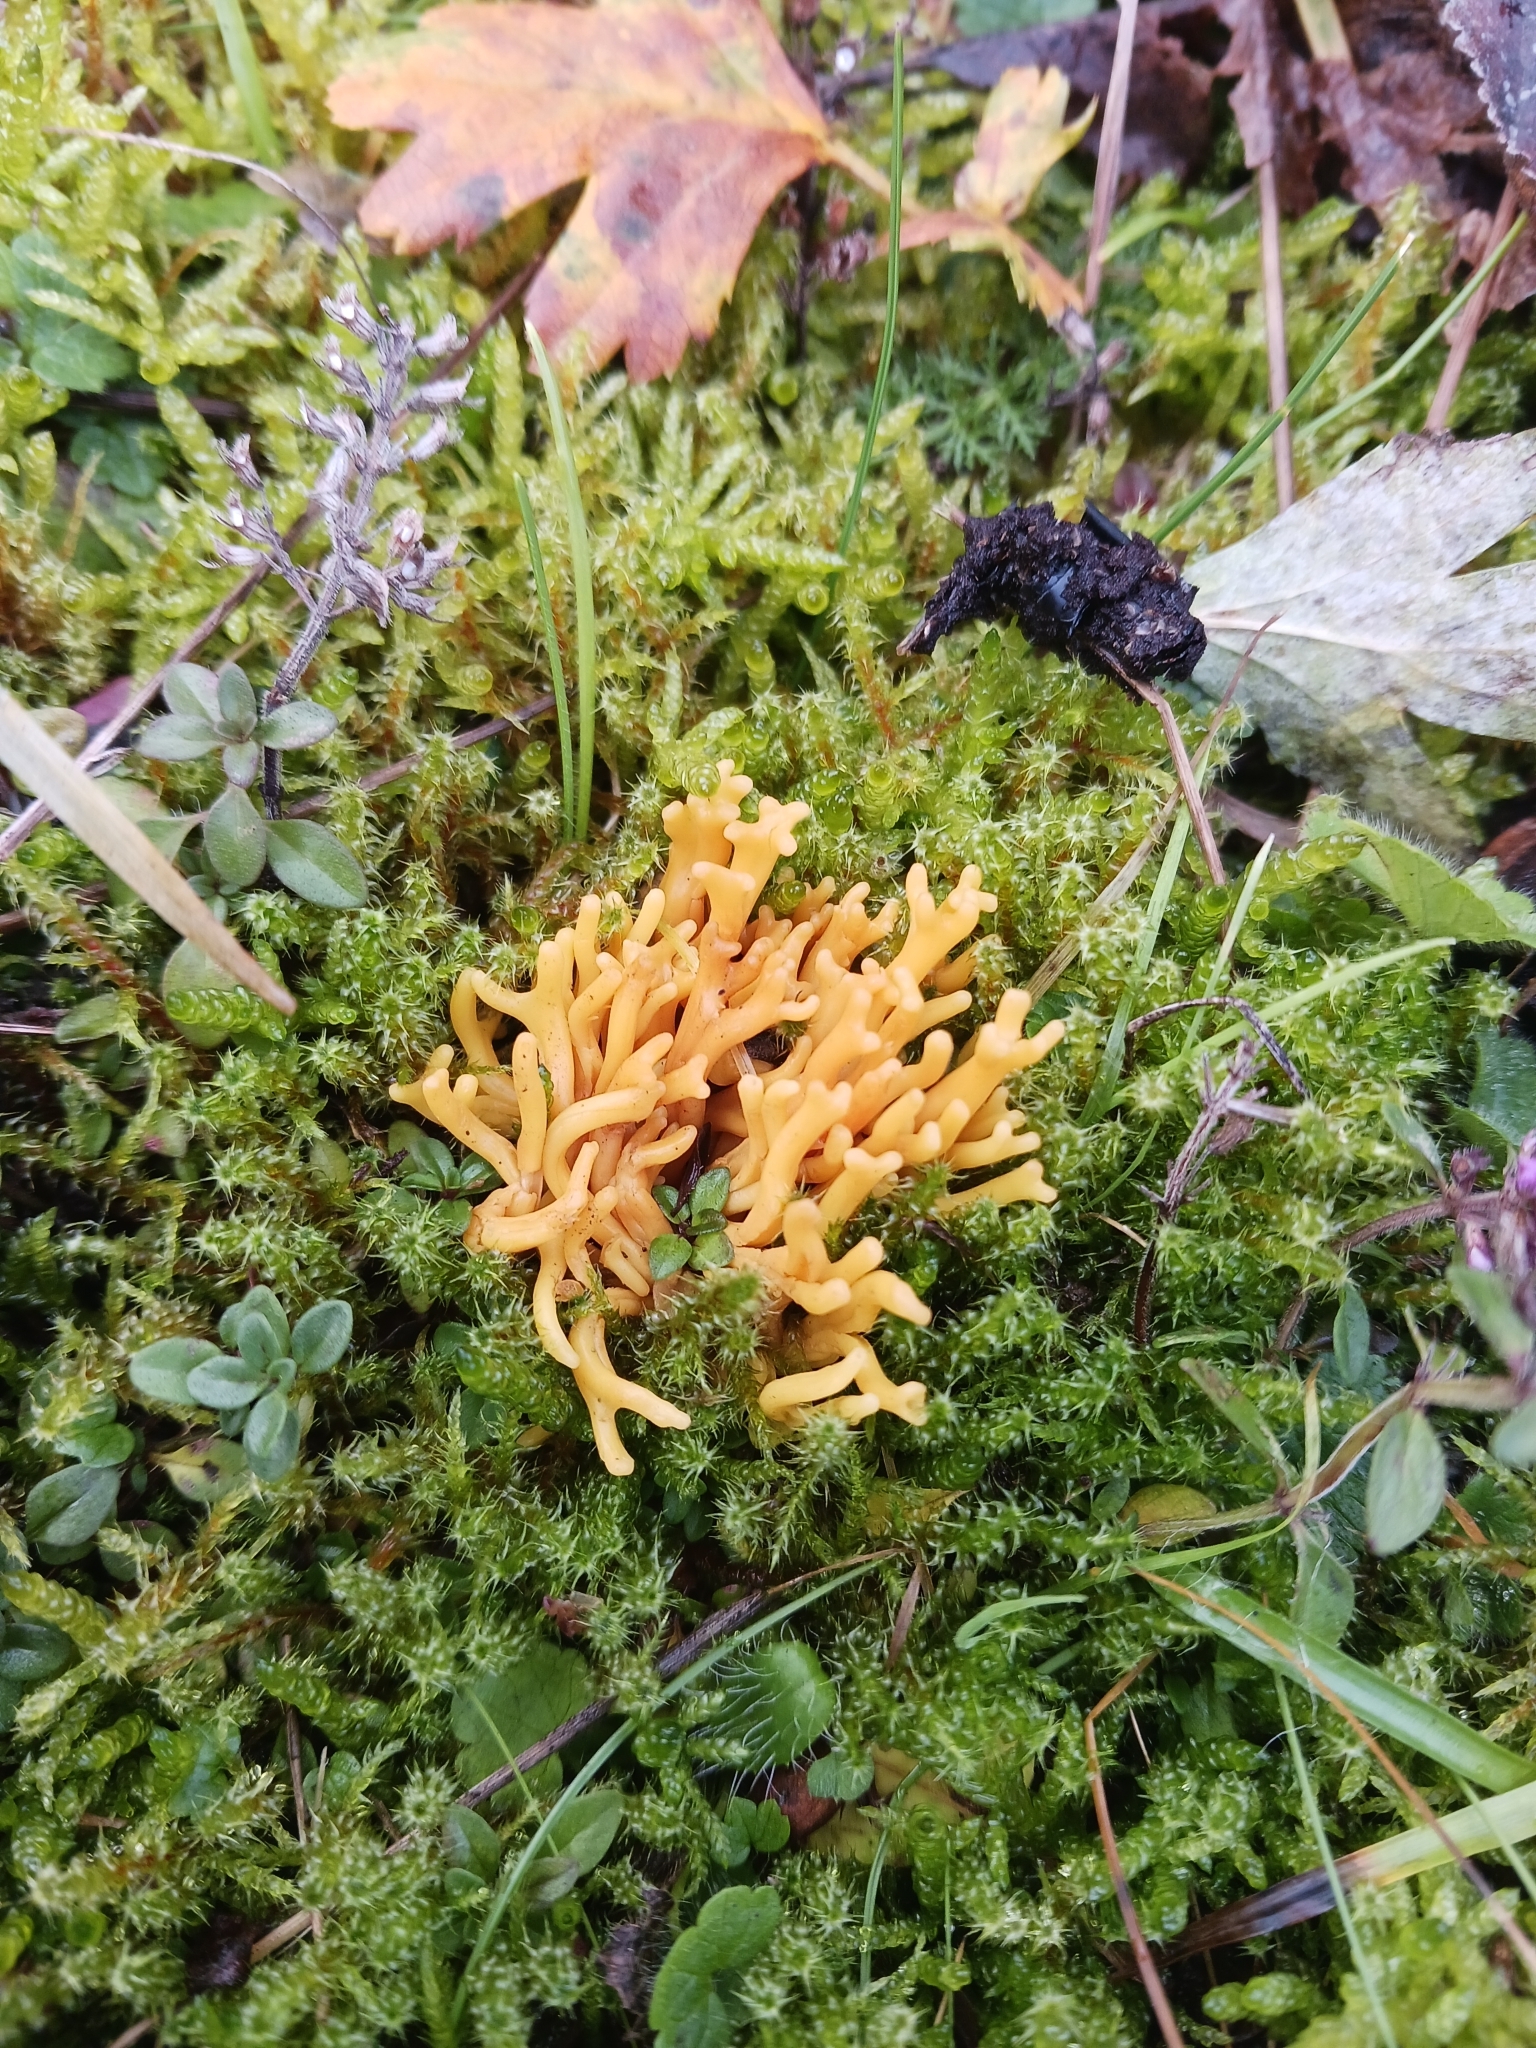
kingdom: Fungi
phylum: Basidiomycota
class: Agaricomycetes
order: Agaricales
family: Clavariaceae
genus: Clavulinopsis
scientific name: Clavulinopsis corniculata
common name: Meadow coral
